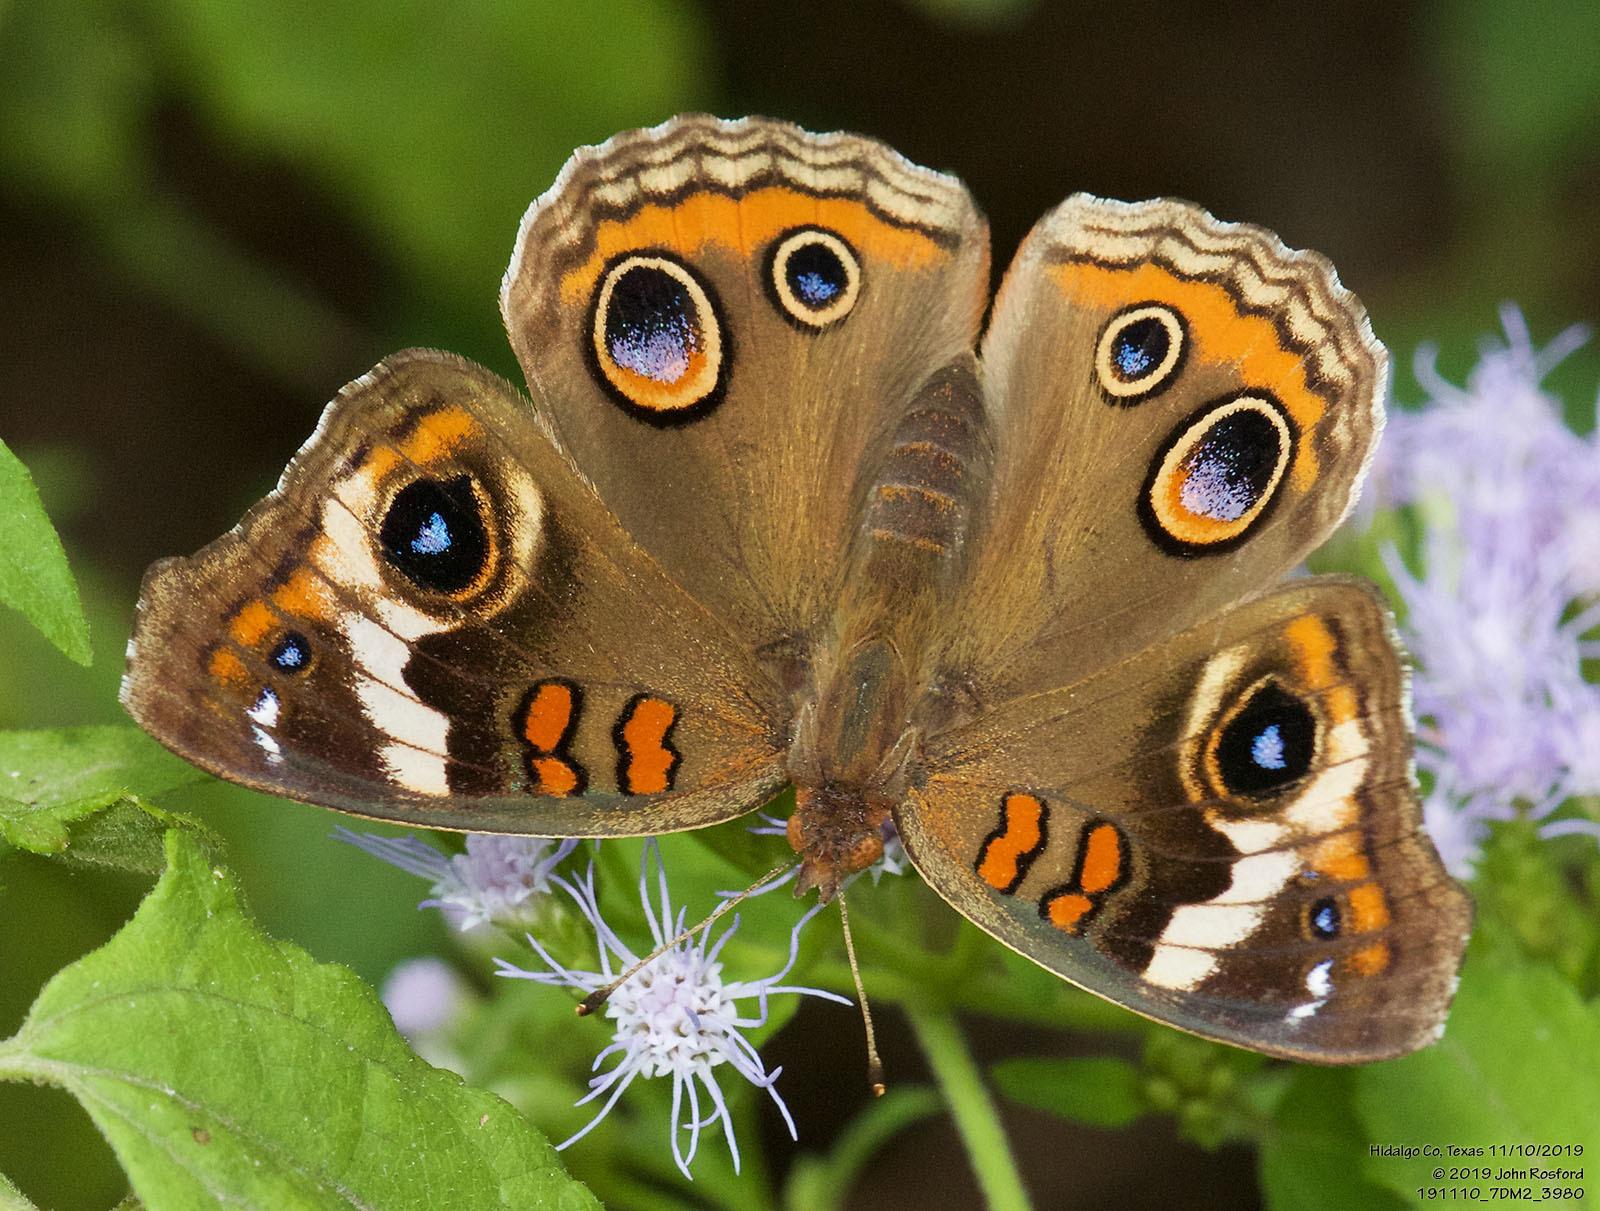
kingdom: Animalia
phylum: Arthropoda
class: Insecta
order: Lepidoptera
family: Nymphalidae
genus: Junonia
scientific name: Junonia coenia
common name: Common buckeye
